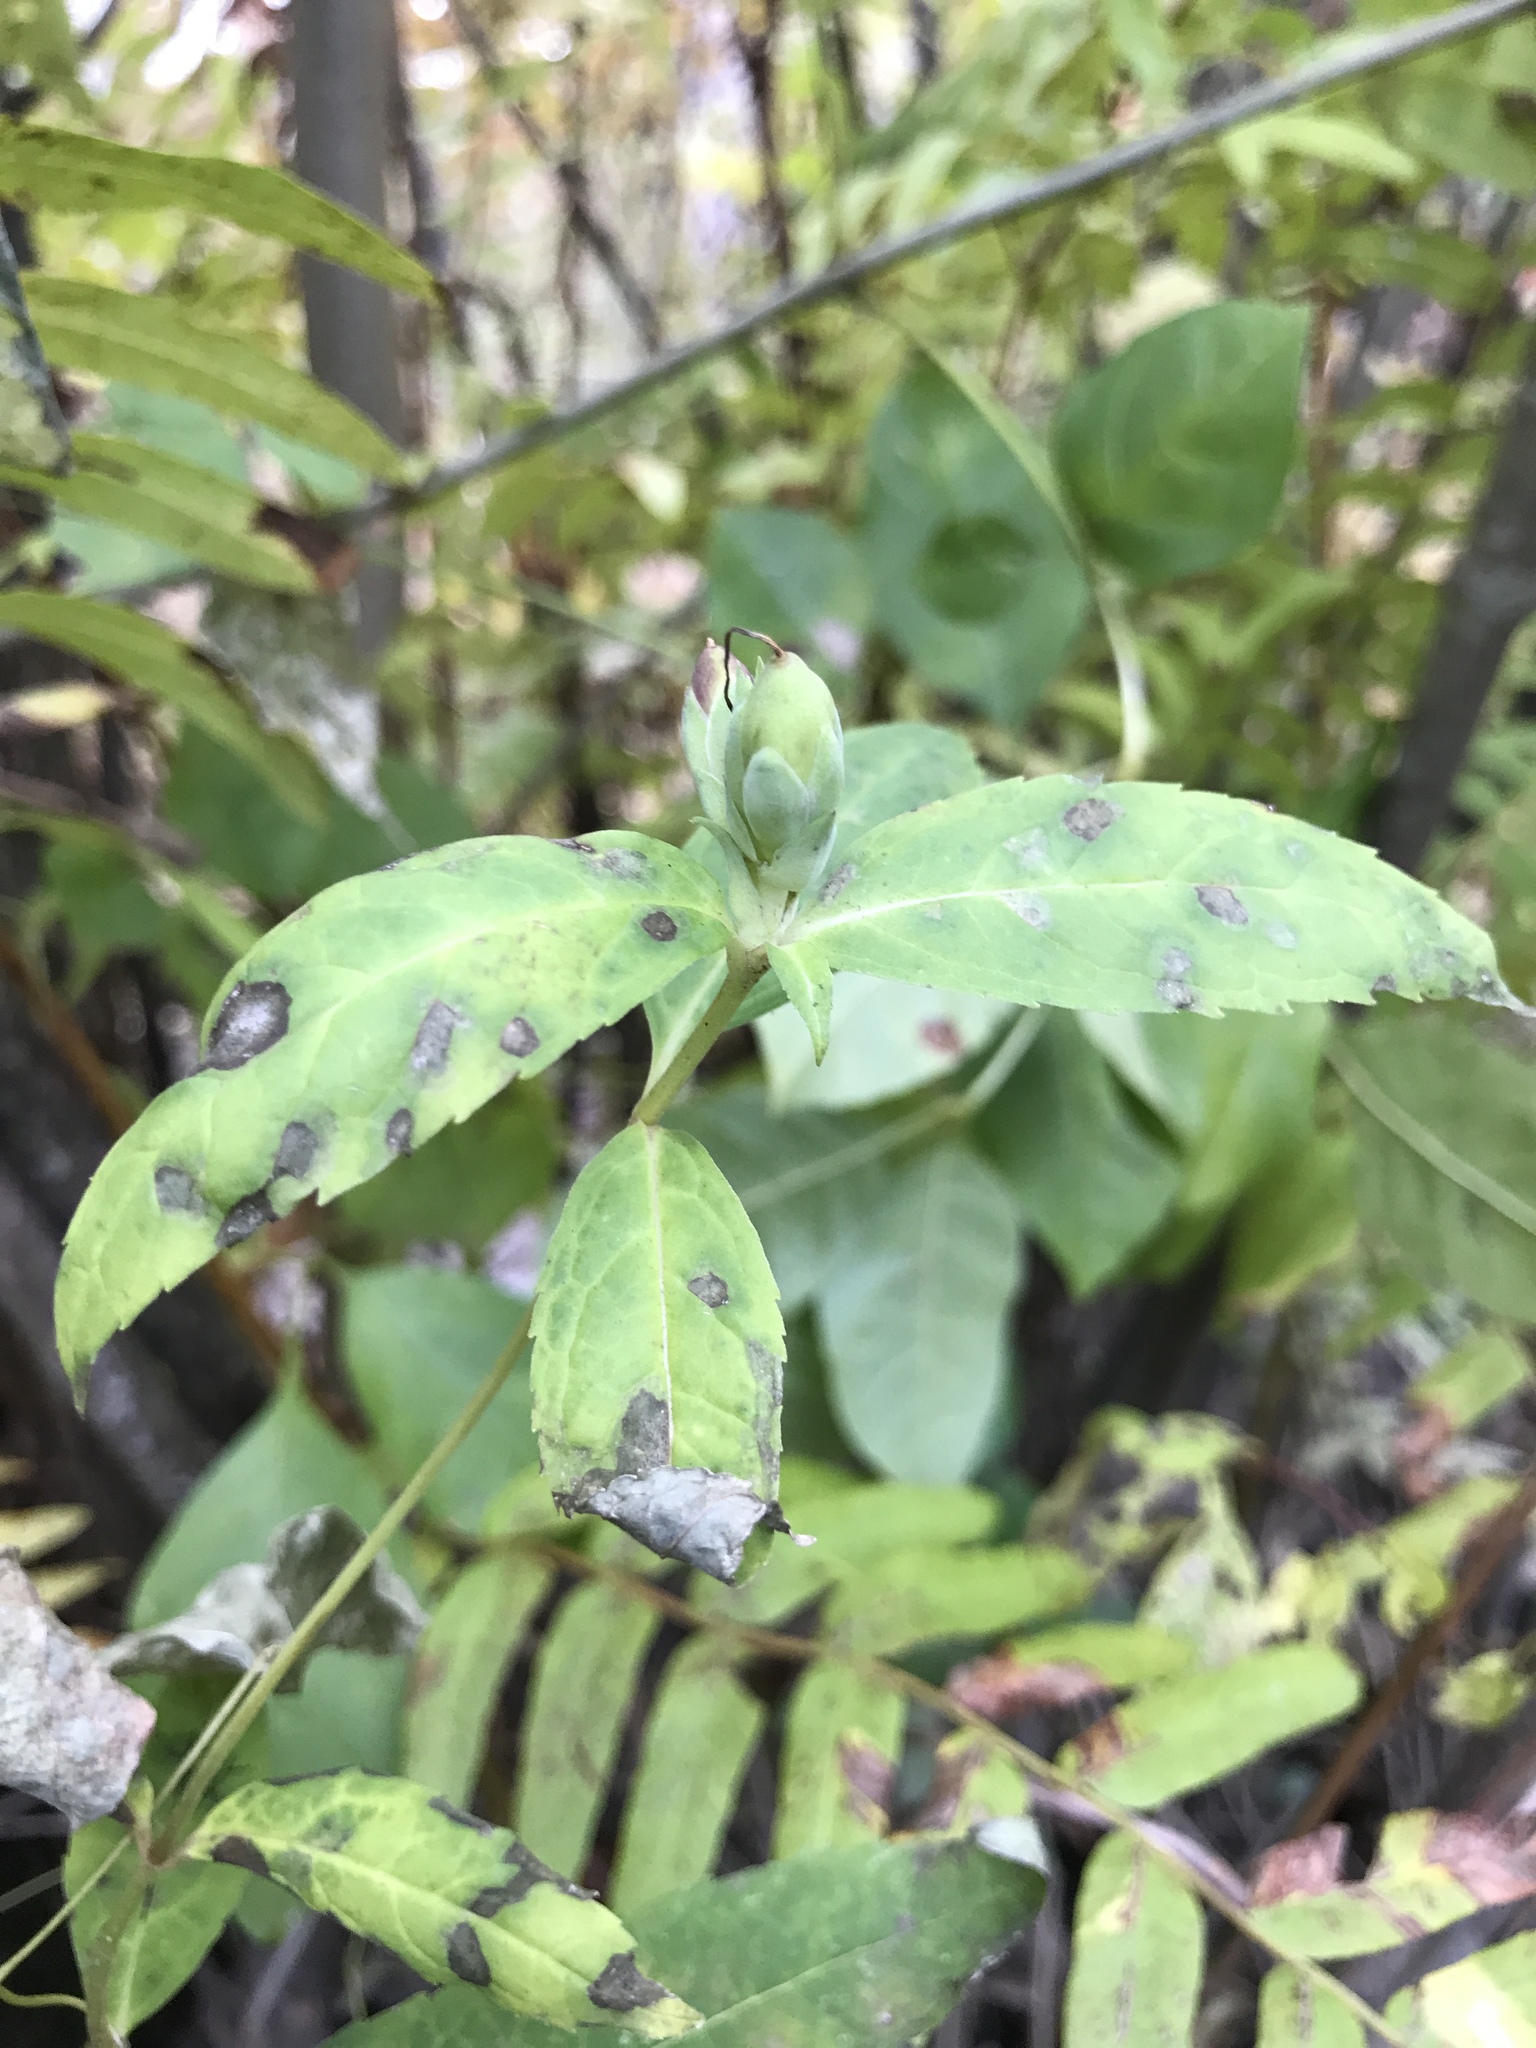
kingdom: Plantae
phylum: Tracheophyta
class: Magnoliopsida
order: Lamiales
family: Plantaginaceae
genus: Chelone
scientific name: Chelone glabra
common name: Snakehead
